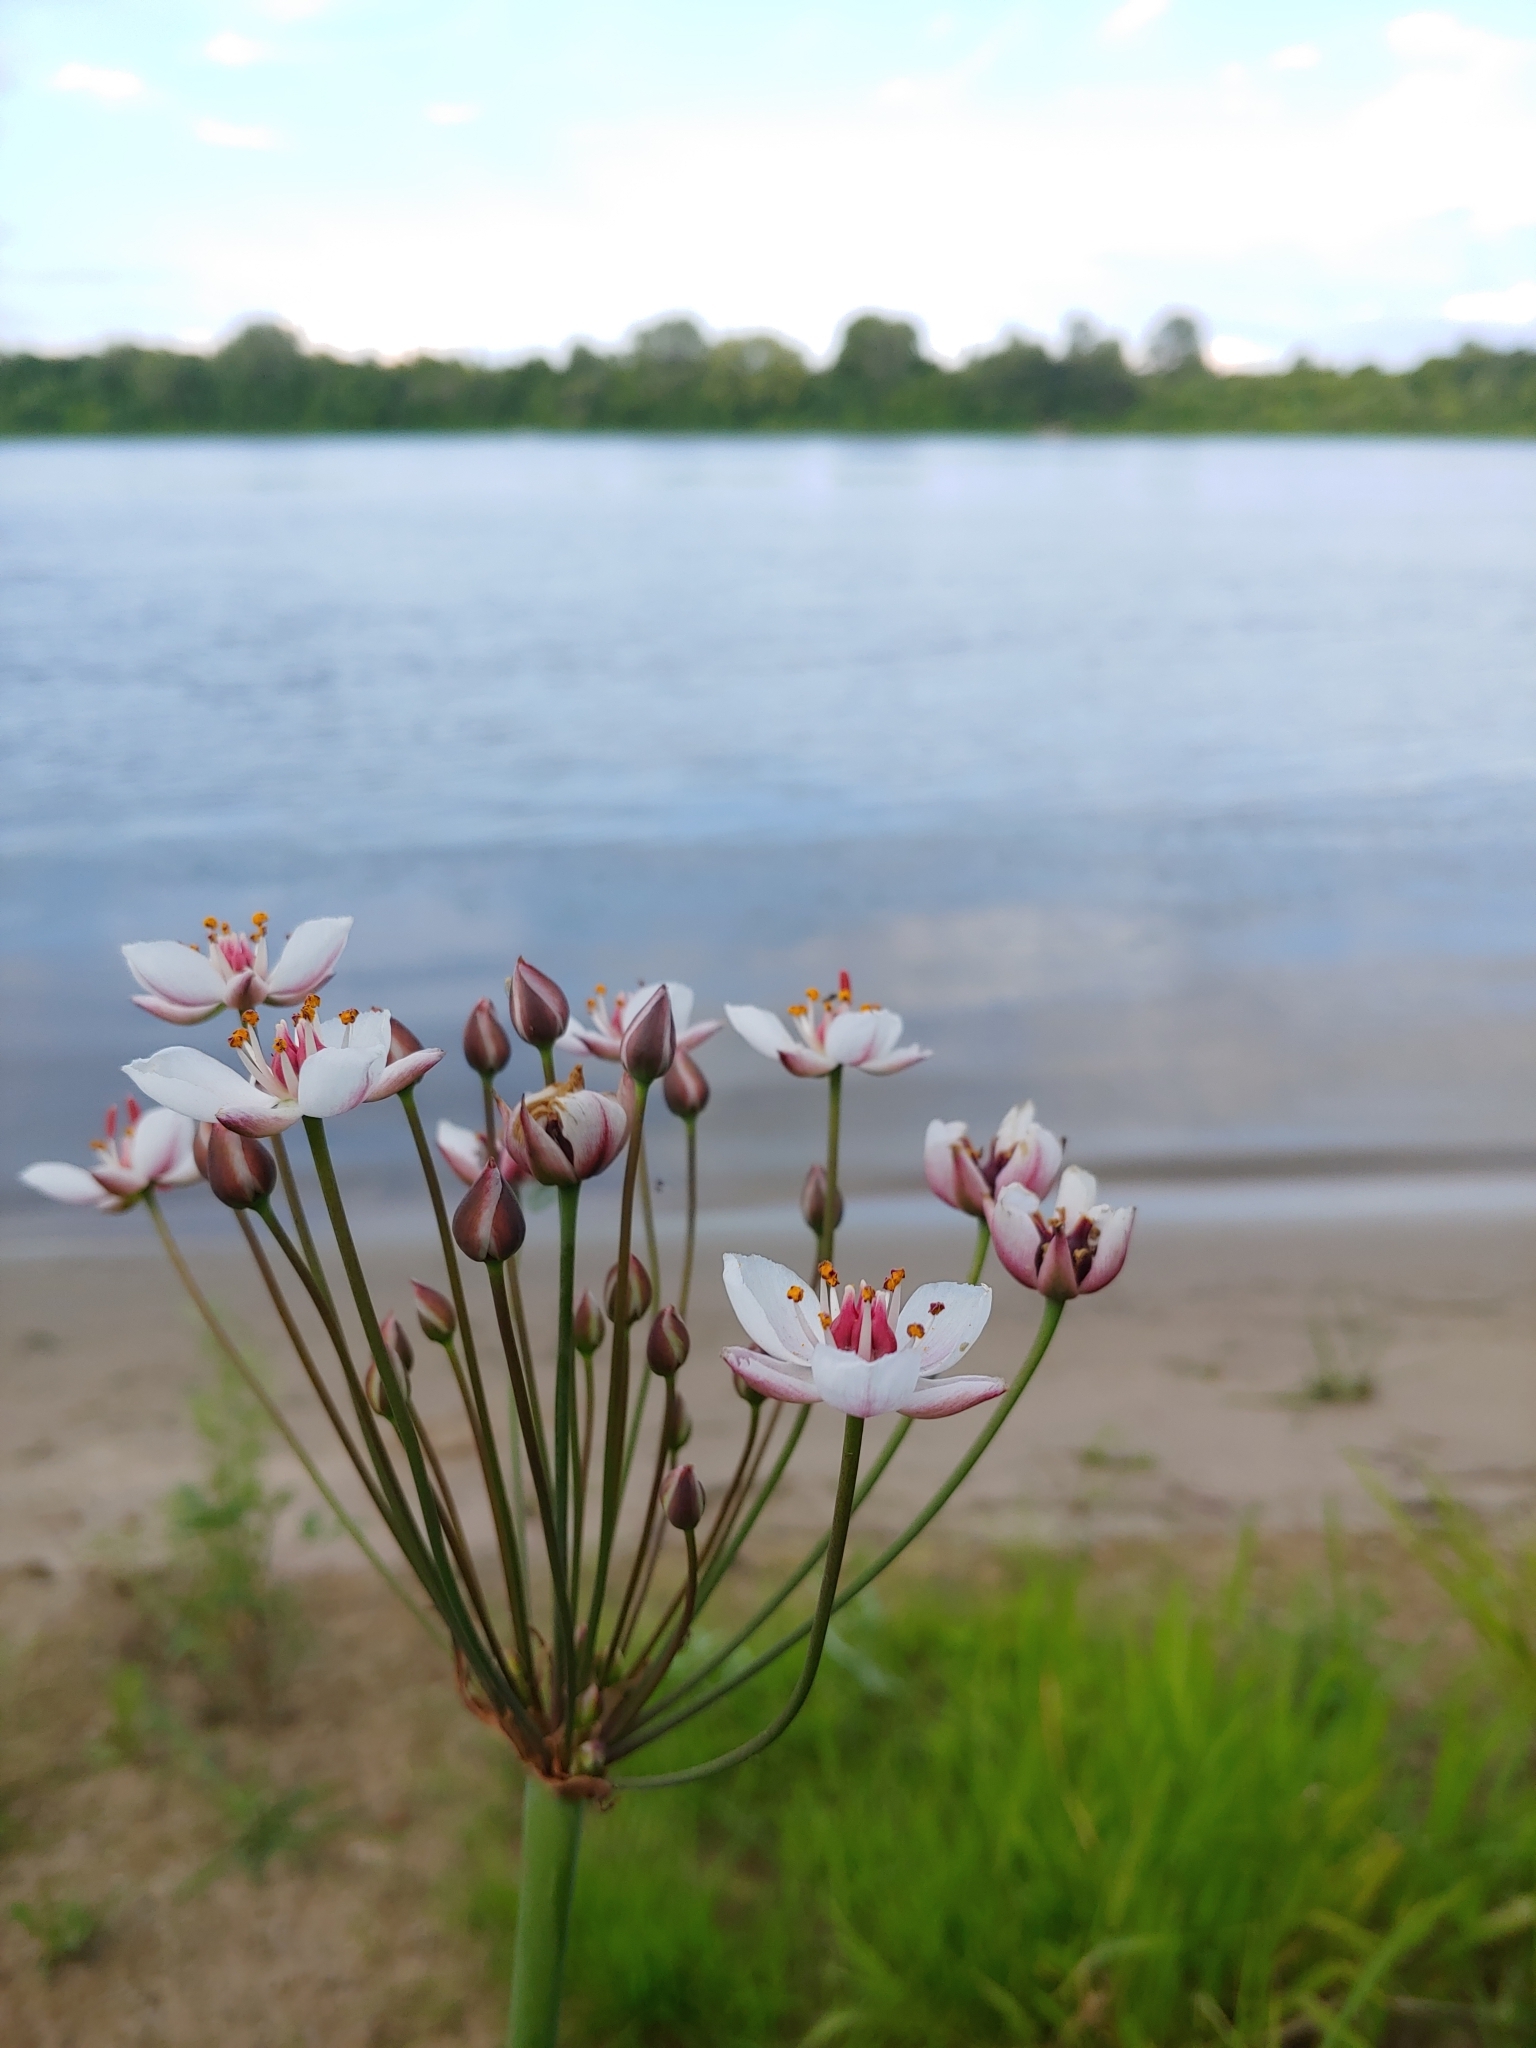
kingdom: Plantae
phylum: Tracheophyta
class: Liliopsida
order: Alismatales
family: Butomaceae
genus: Butomus
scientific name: Butomus umbellatus
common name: Flowering-rush
